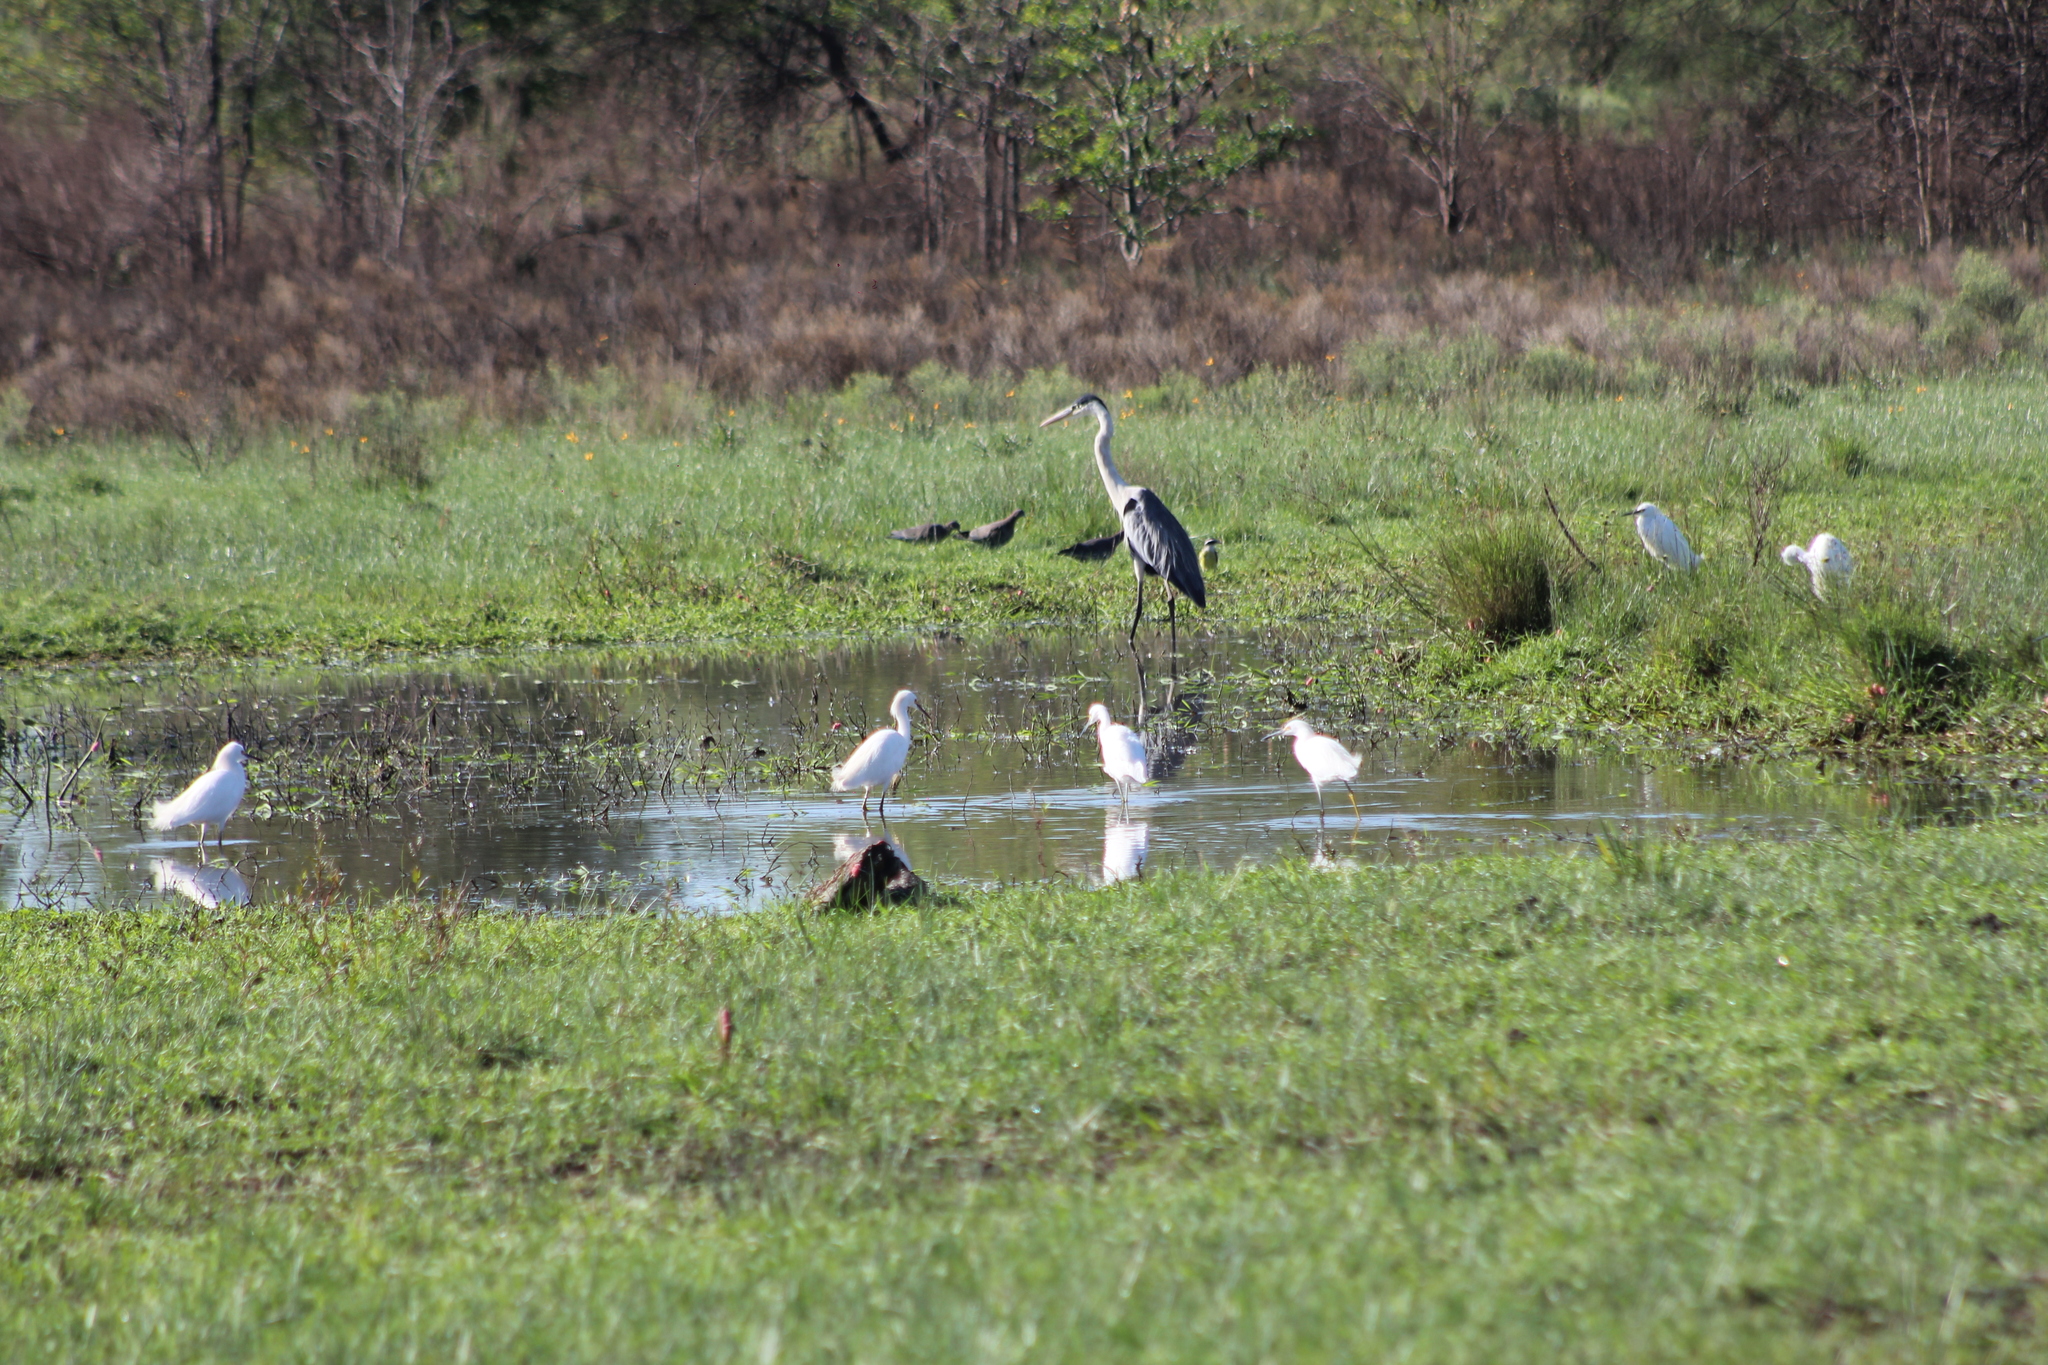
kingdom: Animalia
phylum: Chordata
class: Aves
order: Pelecaniformes
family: Ardeidae
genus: Ardea
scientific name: Ardea cocoi
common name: Cocoi heron
